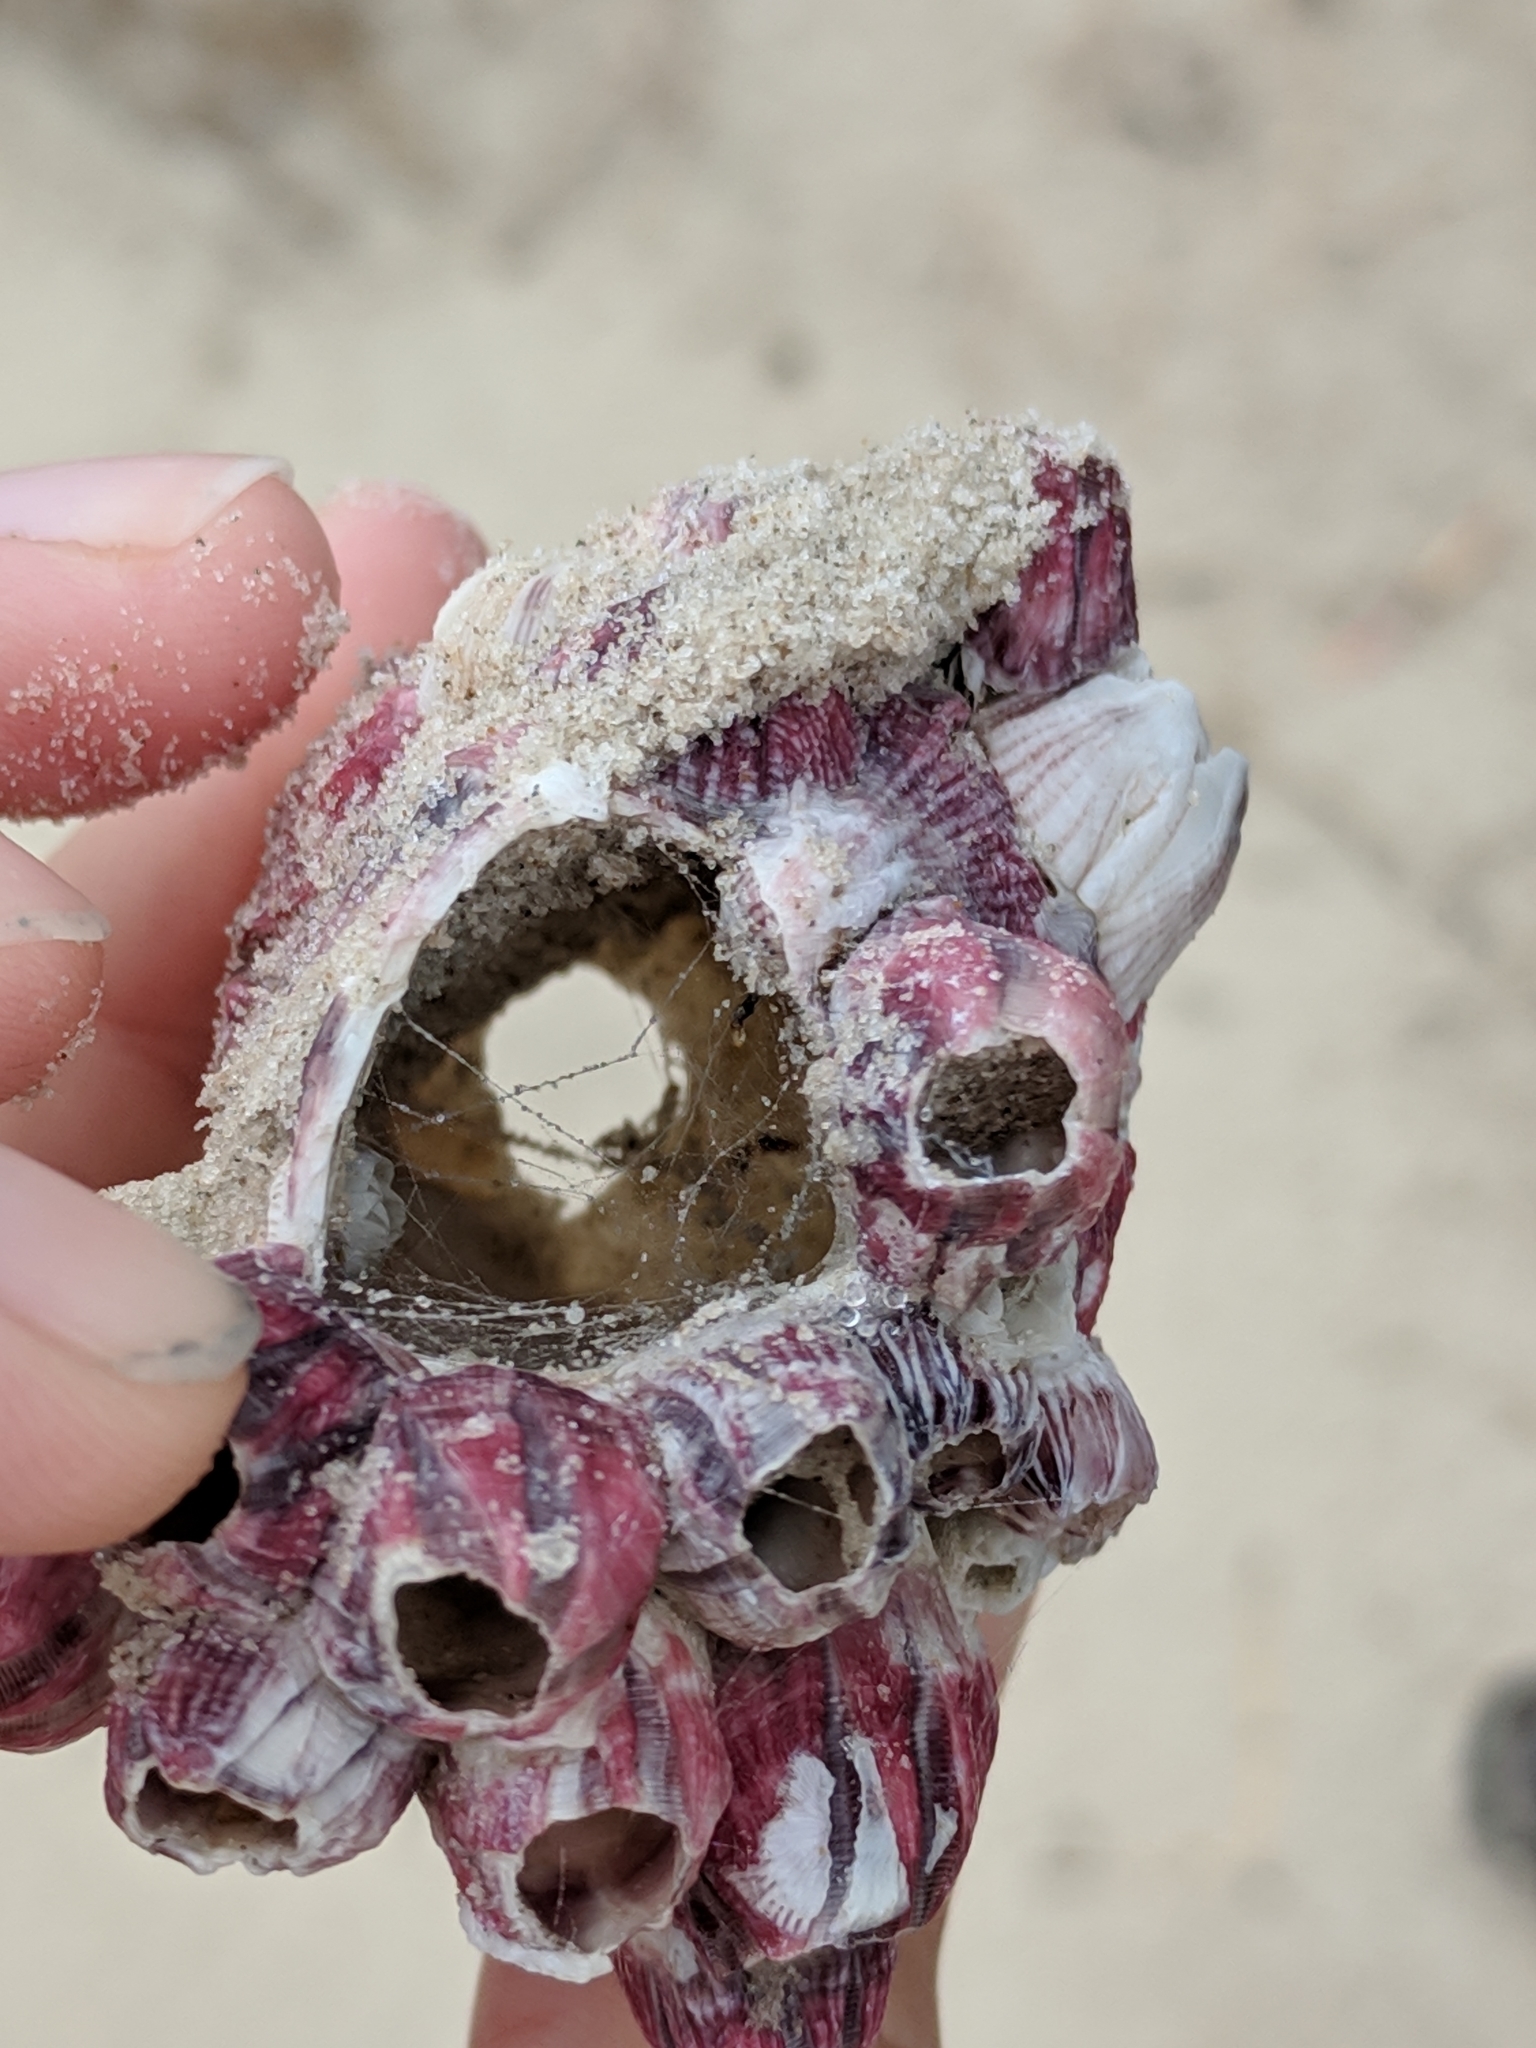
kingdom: Animalia
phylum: Arthropoda
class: Maxillopoda
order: Sessilia
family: Balanidae
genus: Balanus
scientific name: Balanus trigonus
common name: Triangle barnacle
